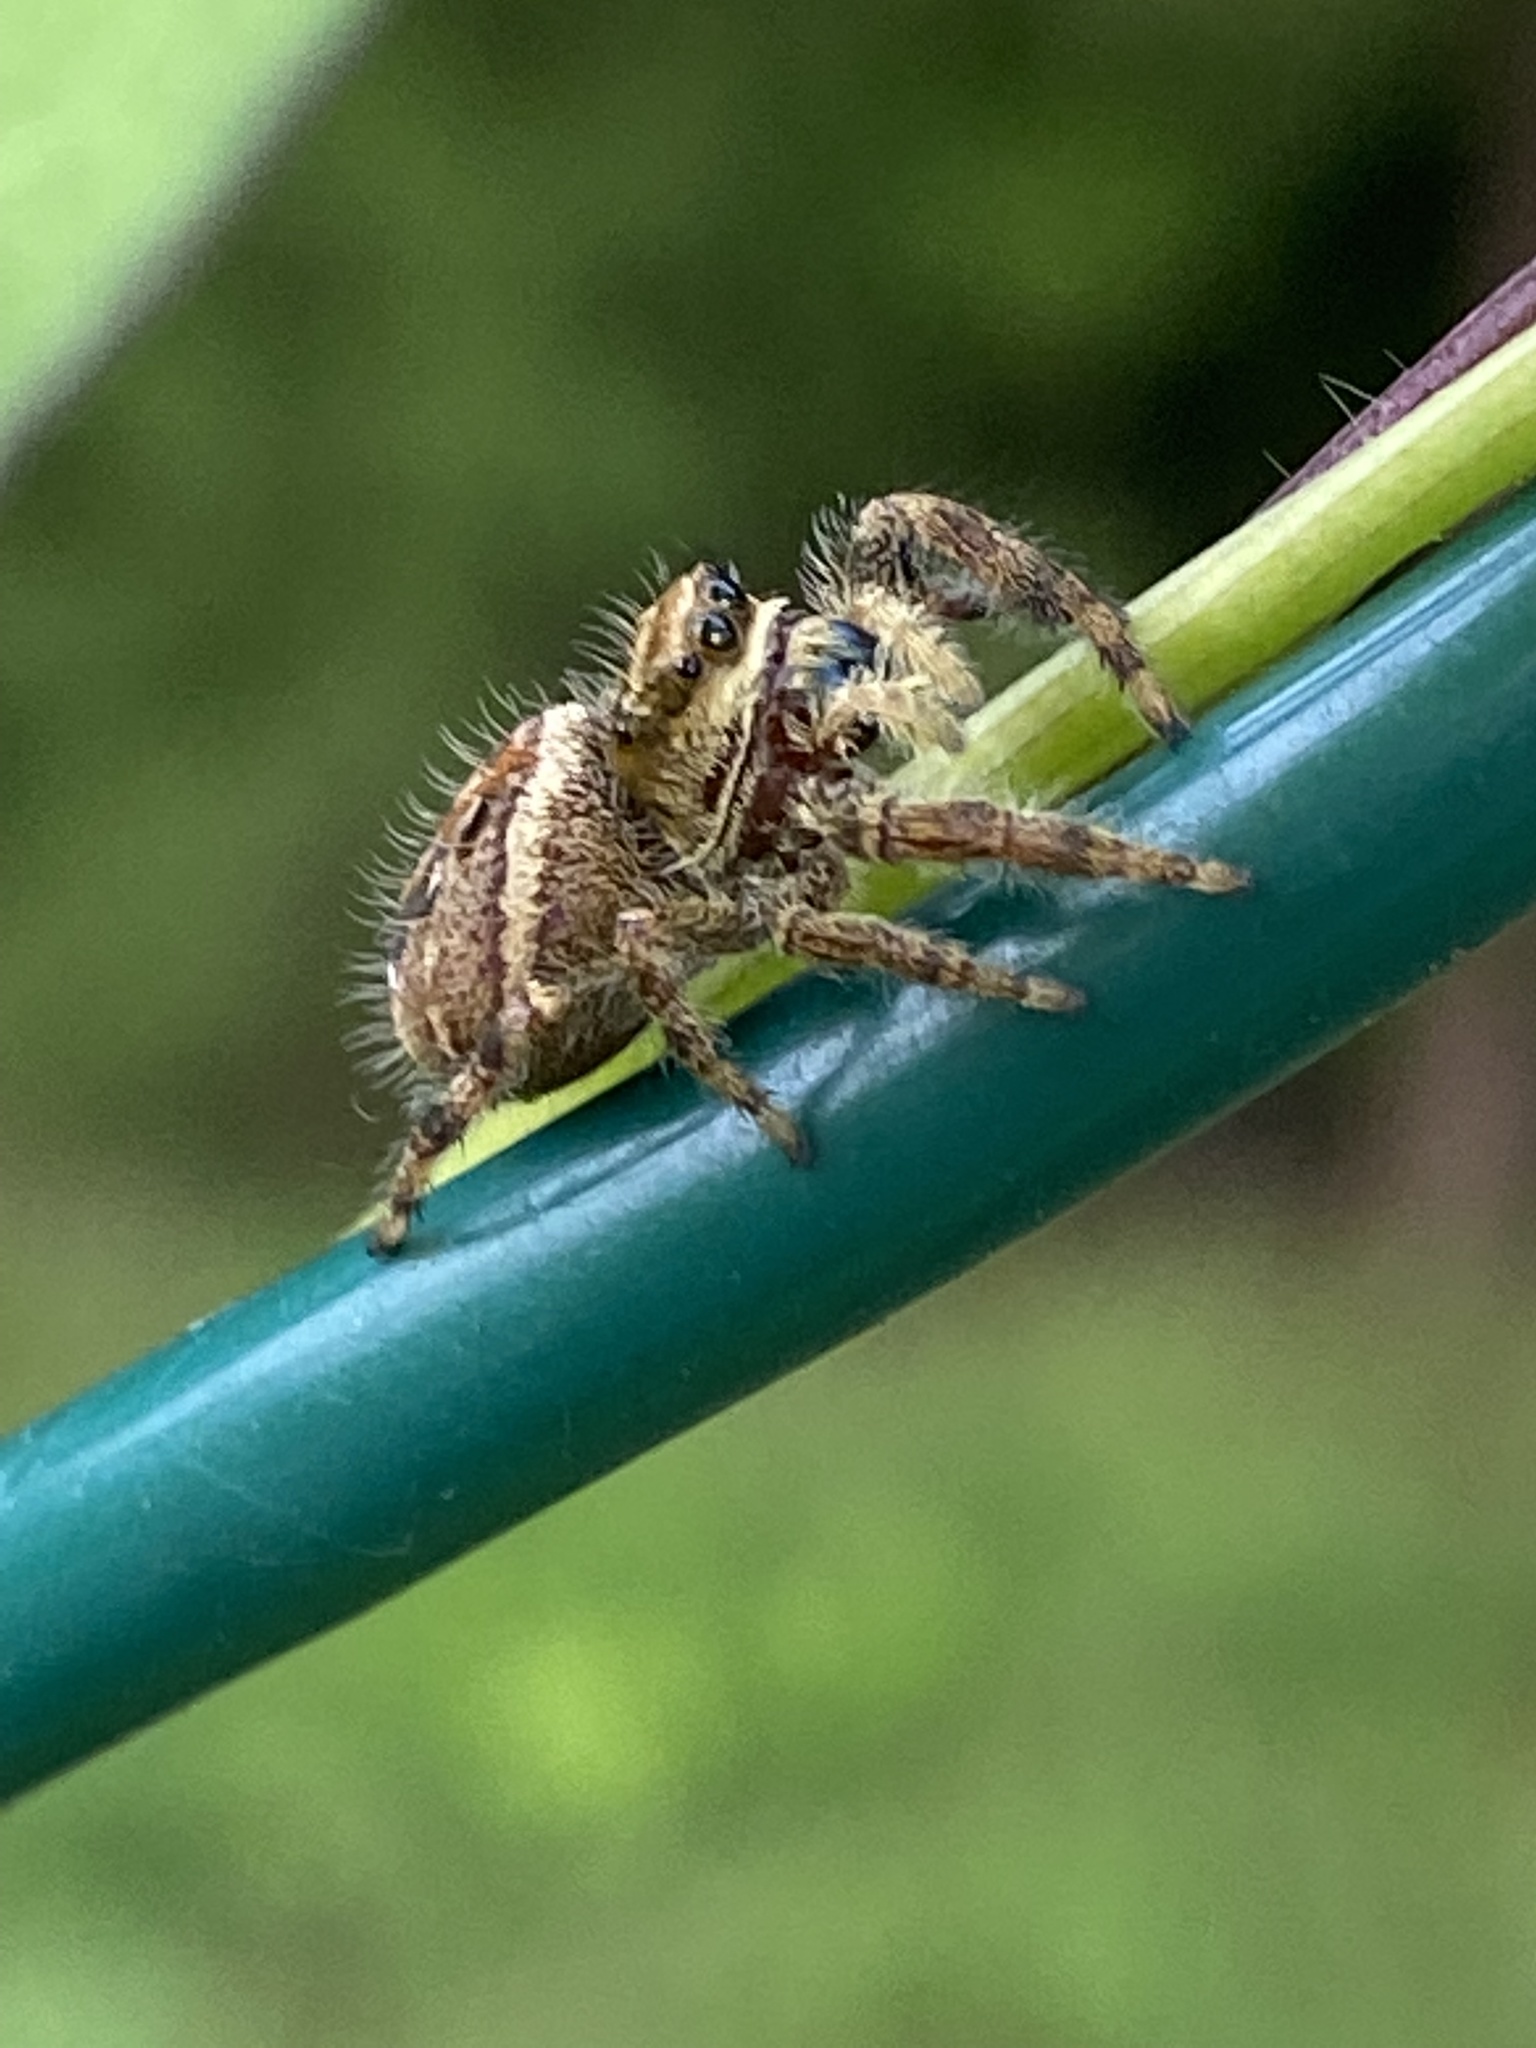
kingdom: Animalia
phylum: Arthropoda
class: Arachnida
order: Araneae
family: Salticidae
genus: Phidippus
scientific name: Phidippus clarus
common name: Brilliant jumping spider
